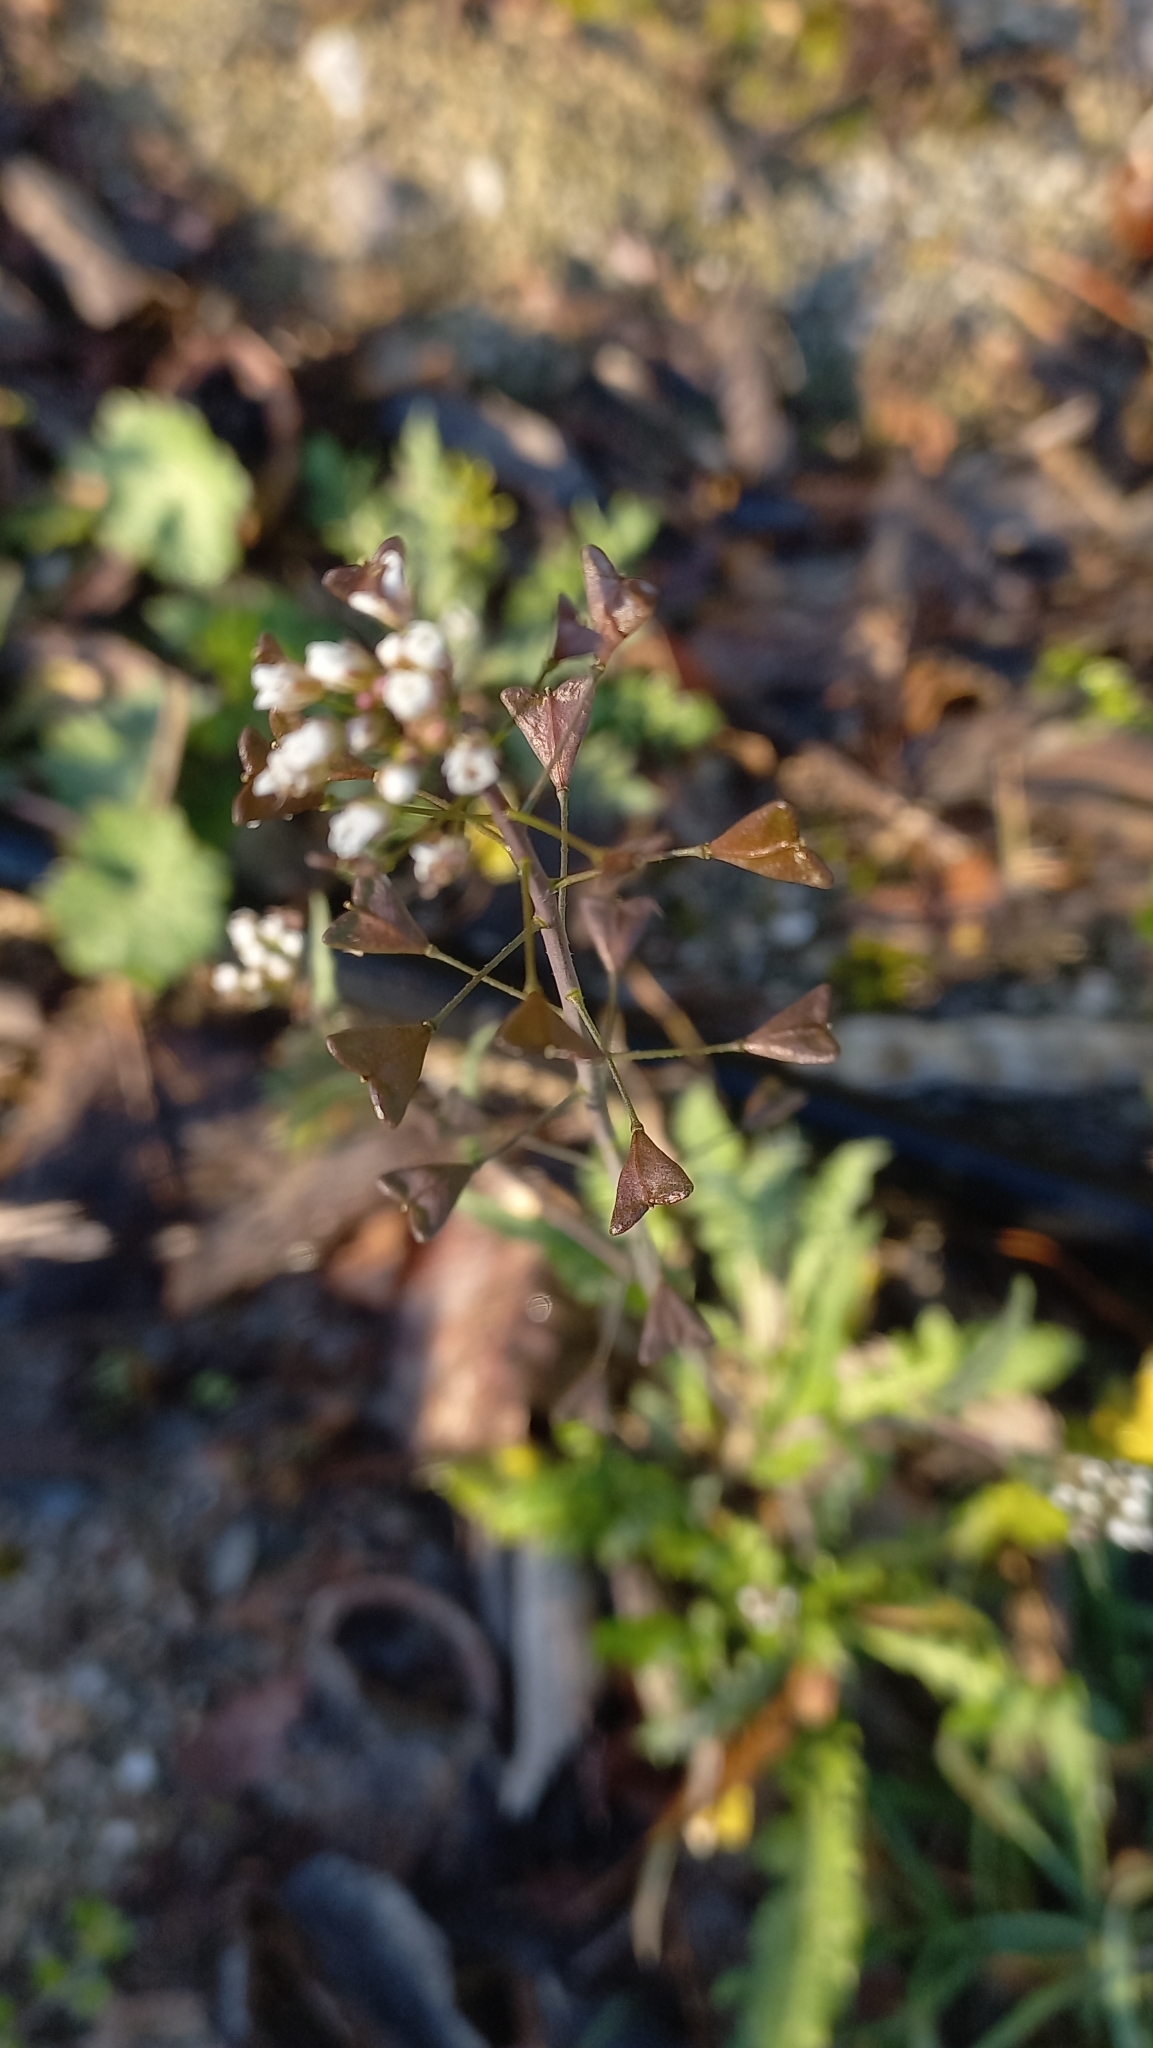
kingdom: Plantae
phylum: Tracheophyta
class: Magnoliopsida
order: Brassicales
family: Brassicaceae
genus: Capsella
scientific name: Capsella bursa-pastoris
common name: Shepherd's purse
